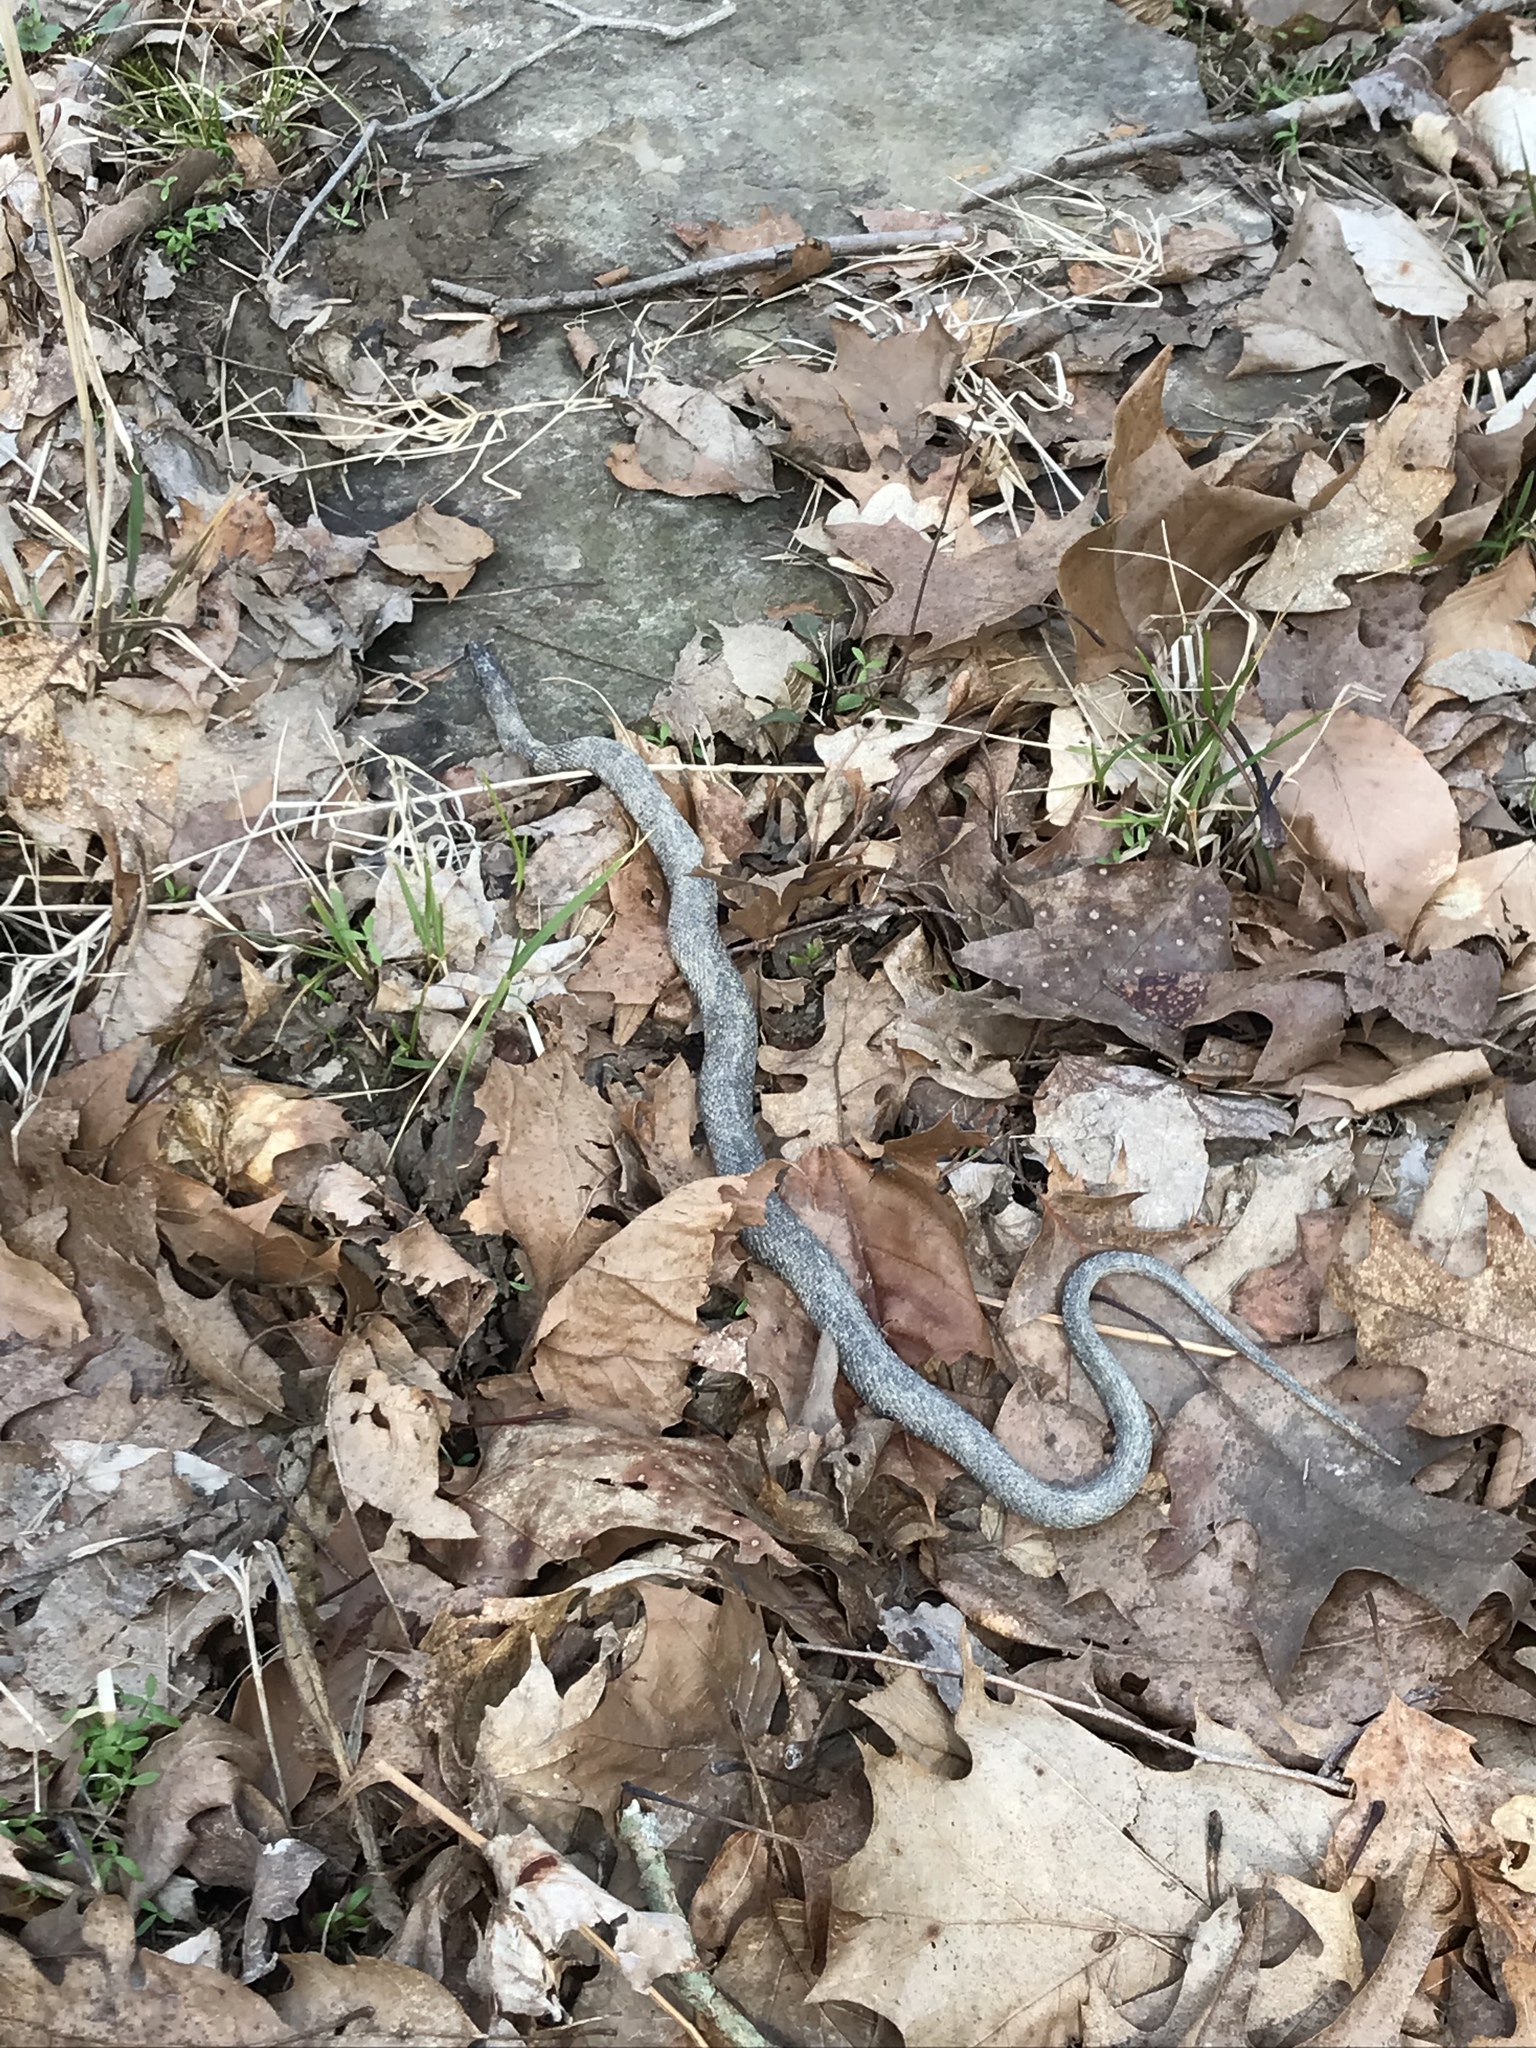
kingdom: Animalia
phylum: Chordata
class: Squamata
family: Colubridae
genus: Nerodia
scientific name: Nerodia sipedon
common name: Northern water snake
